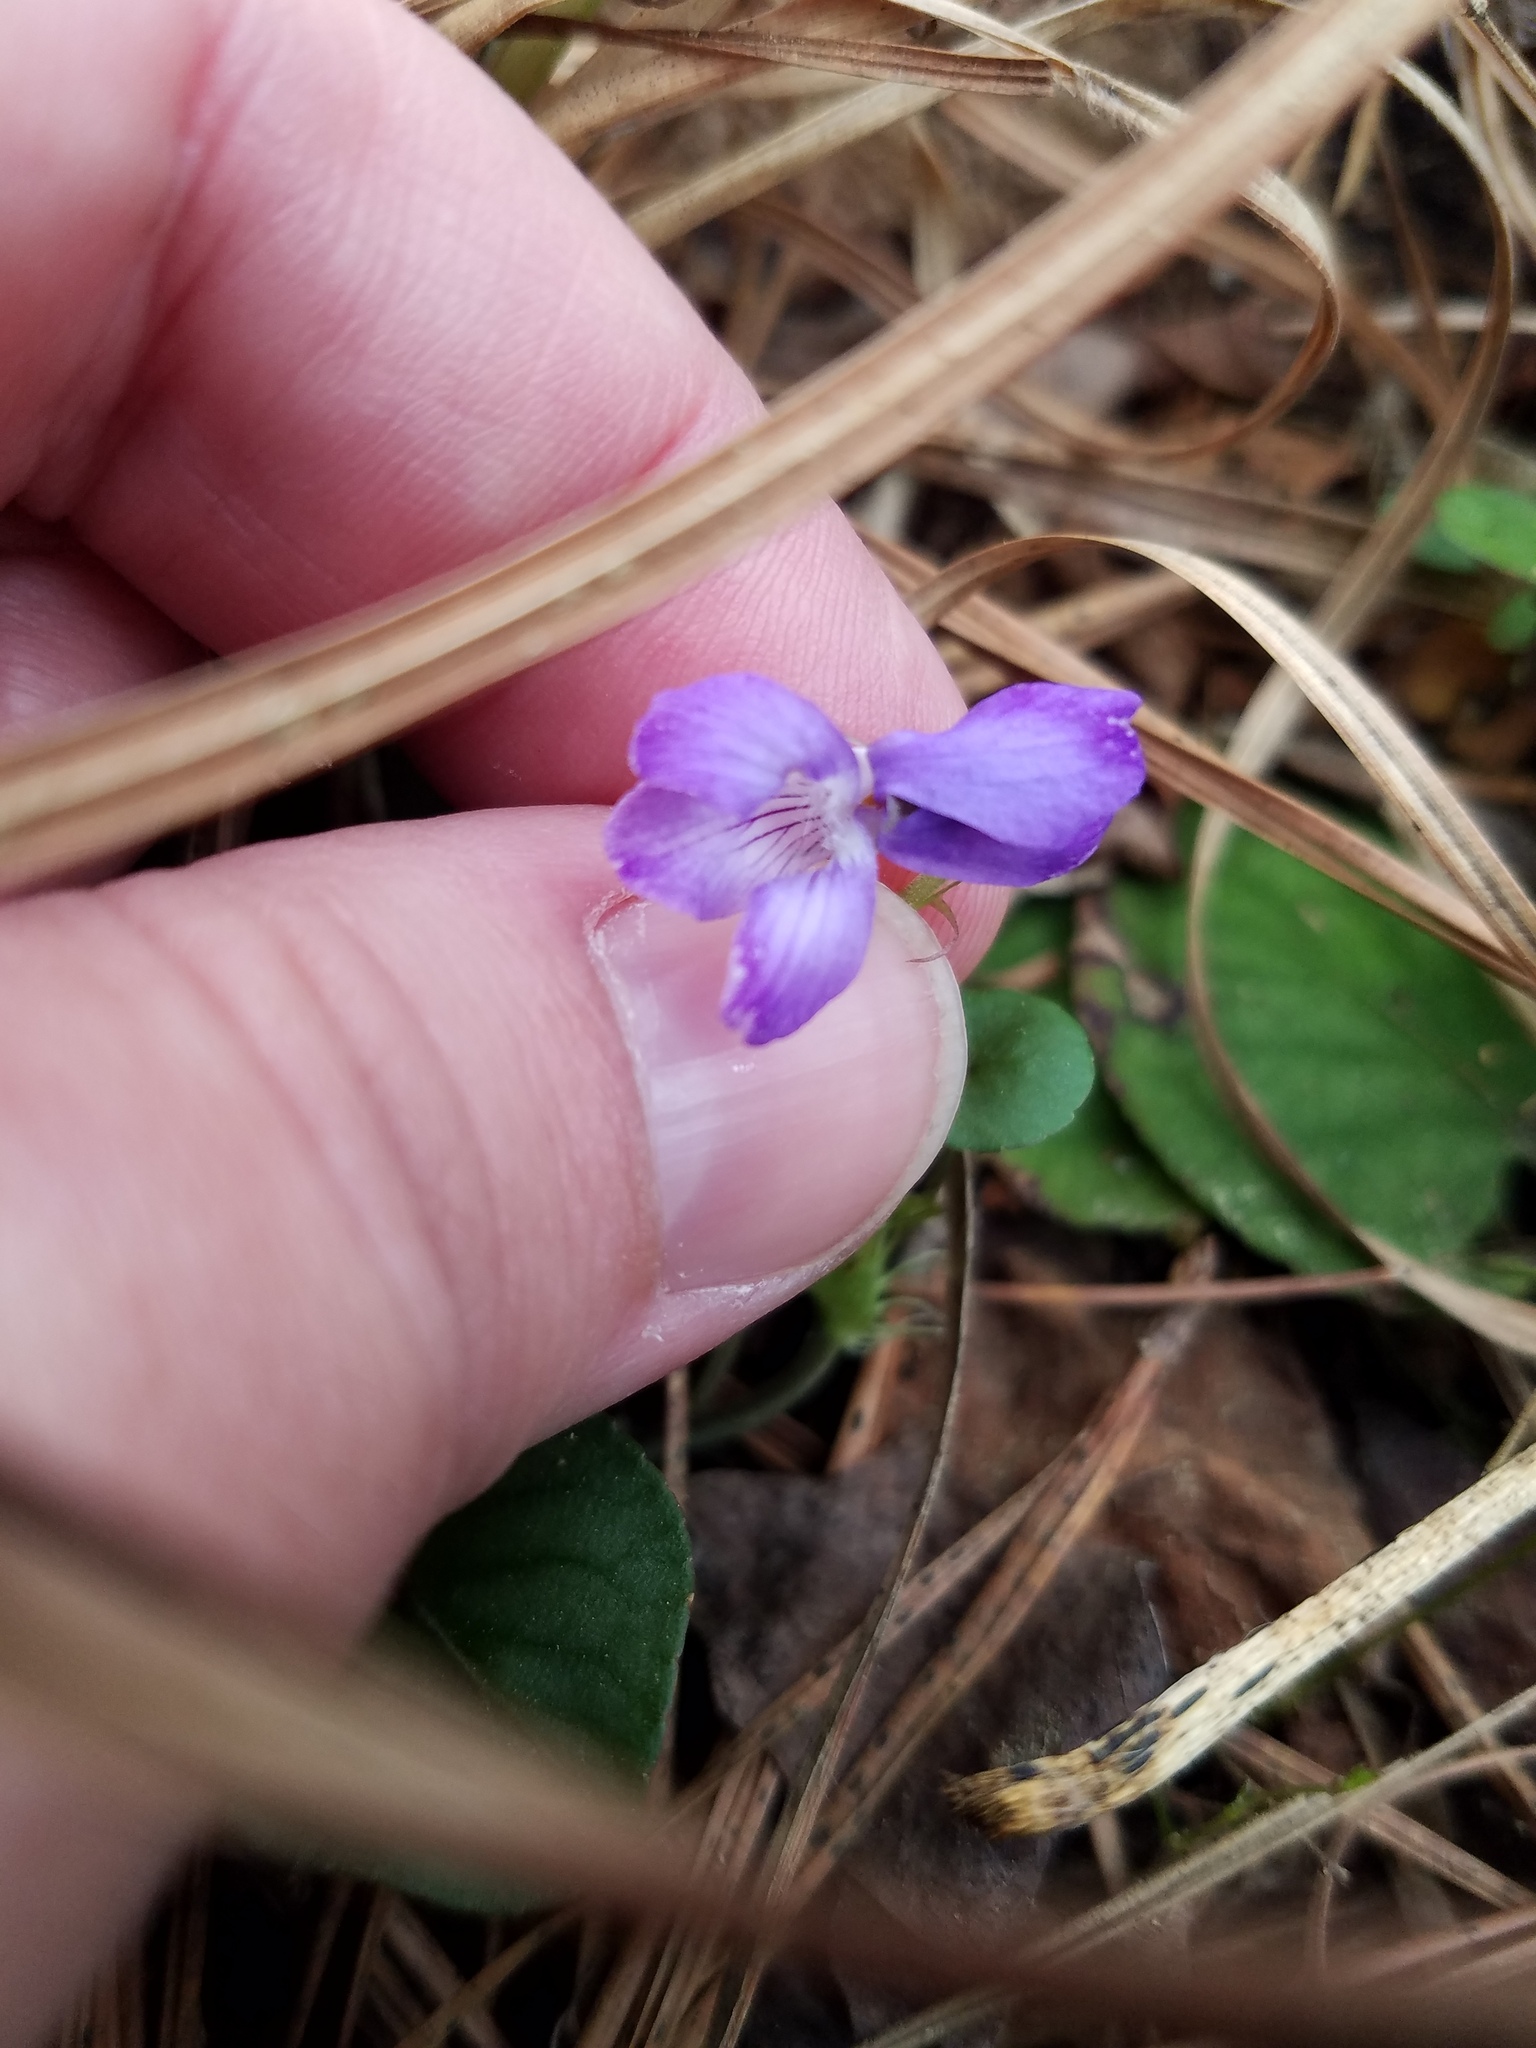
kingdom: Plantae
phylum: Tracheophyta
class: Magnoliopsida
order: Malpighiales
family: Violaceae
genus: Viola
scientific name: Viola walteri
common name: Prostrate southern violet
